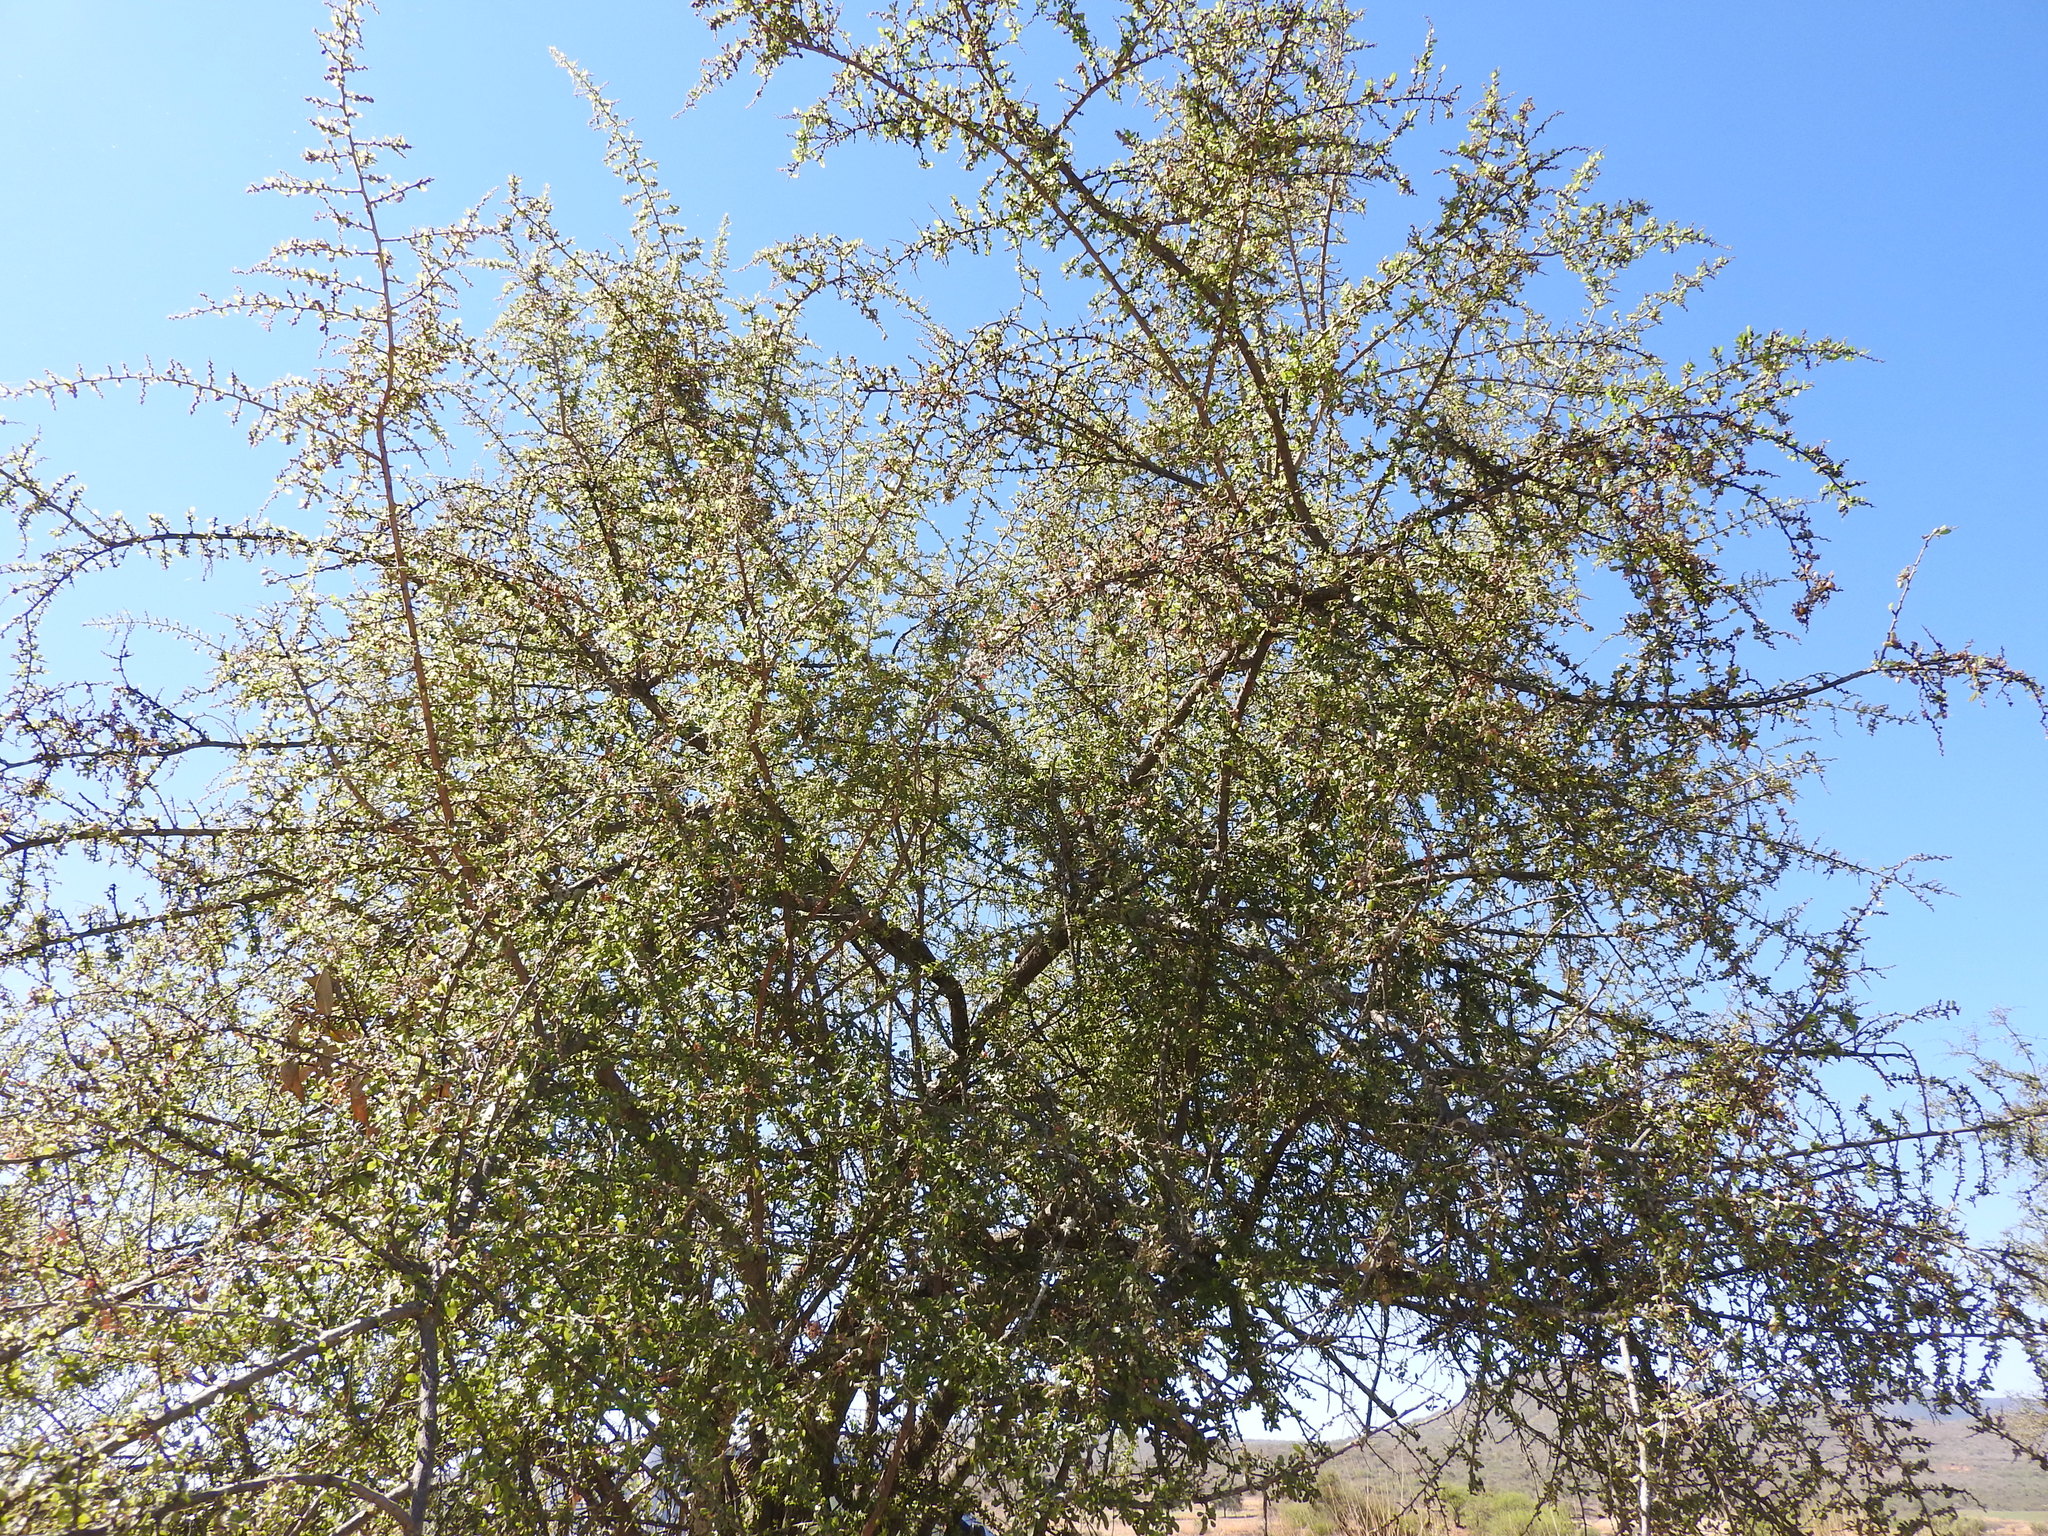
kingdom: Plantae
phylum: Tracheophyta
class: Magnoliopsida
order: Rosales
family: Rhamnaceae
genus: Condalia
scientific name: Condalia velutina
